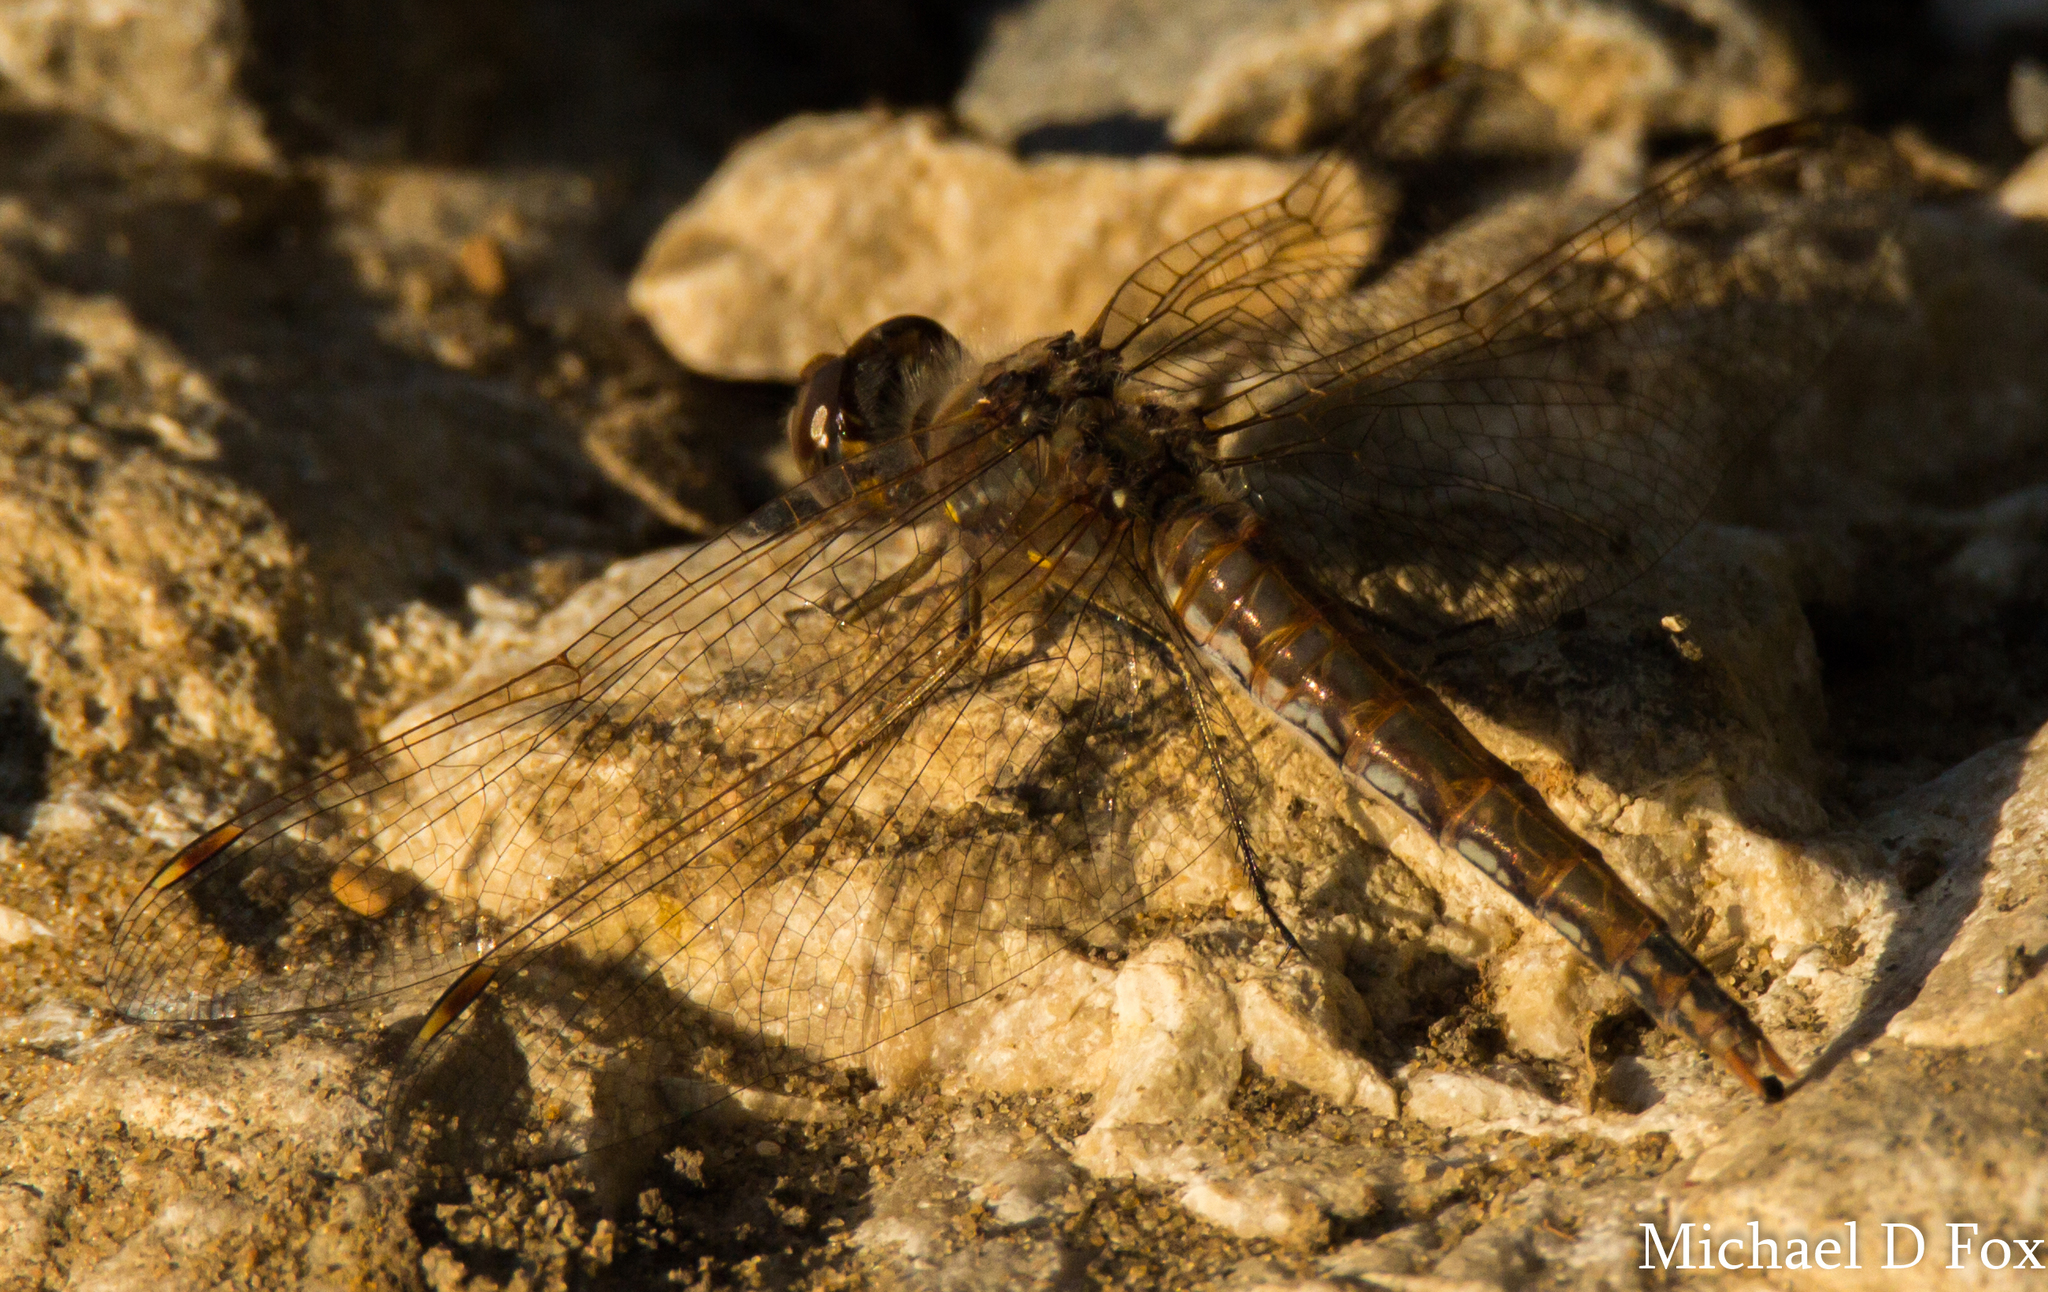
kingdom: Animalia
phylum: Arthropoda
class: Insecta
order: Odonata
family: Libellulidae
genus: Sympetrum
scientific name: Sympetrum corruptum
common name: Variegated meadowhawk
